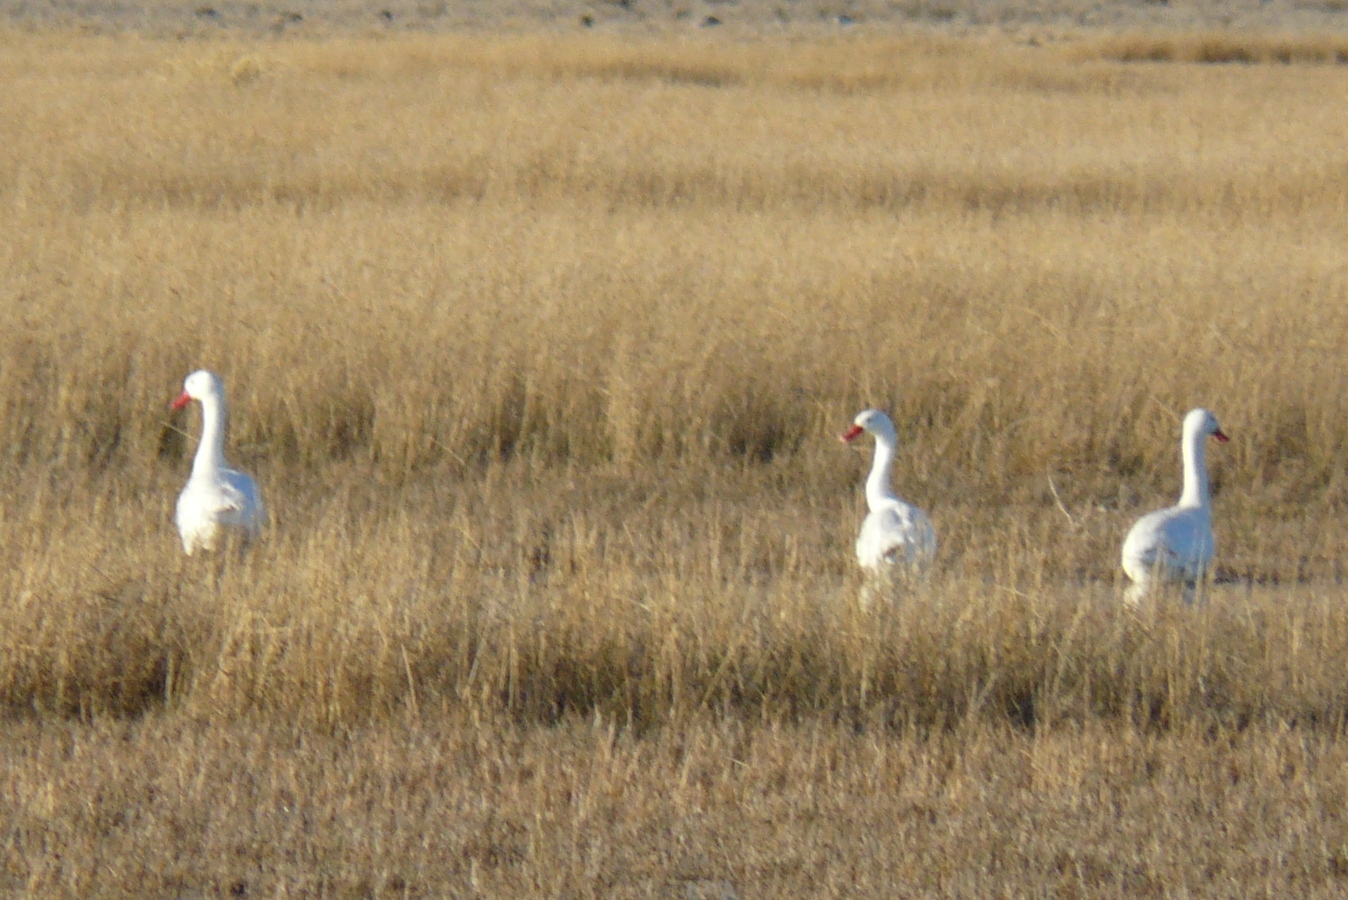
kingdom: Animalia
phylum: Chordata
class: Aves
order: Anseriformes
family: Anatidae
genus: Coscoroba
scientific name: Coscoroba coscoroba
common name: Coscoroba swan
